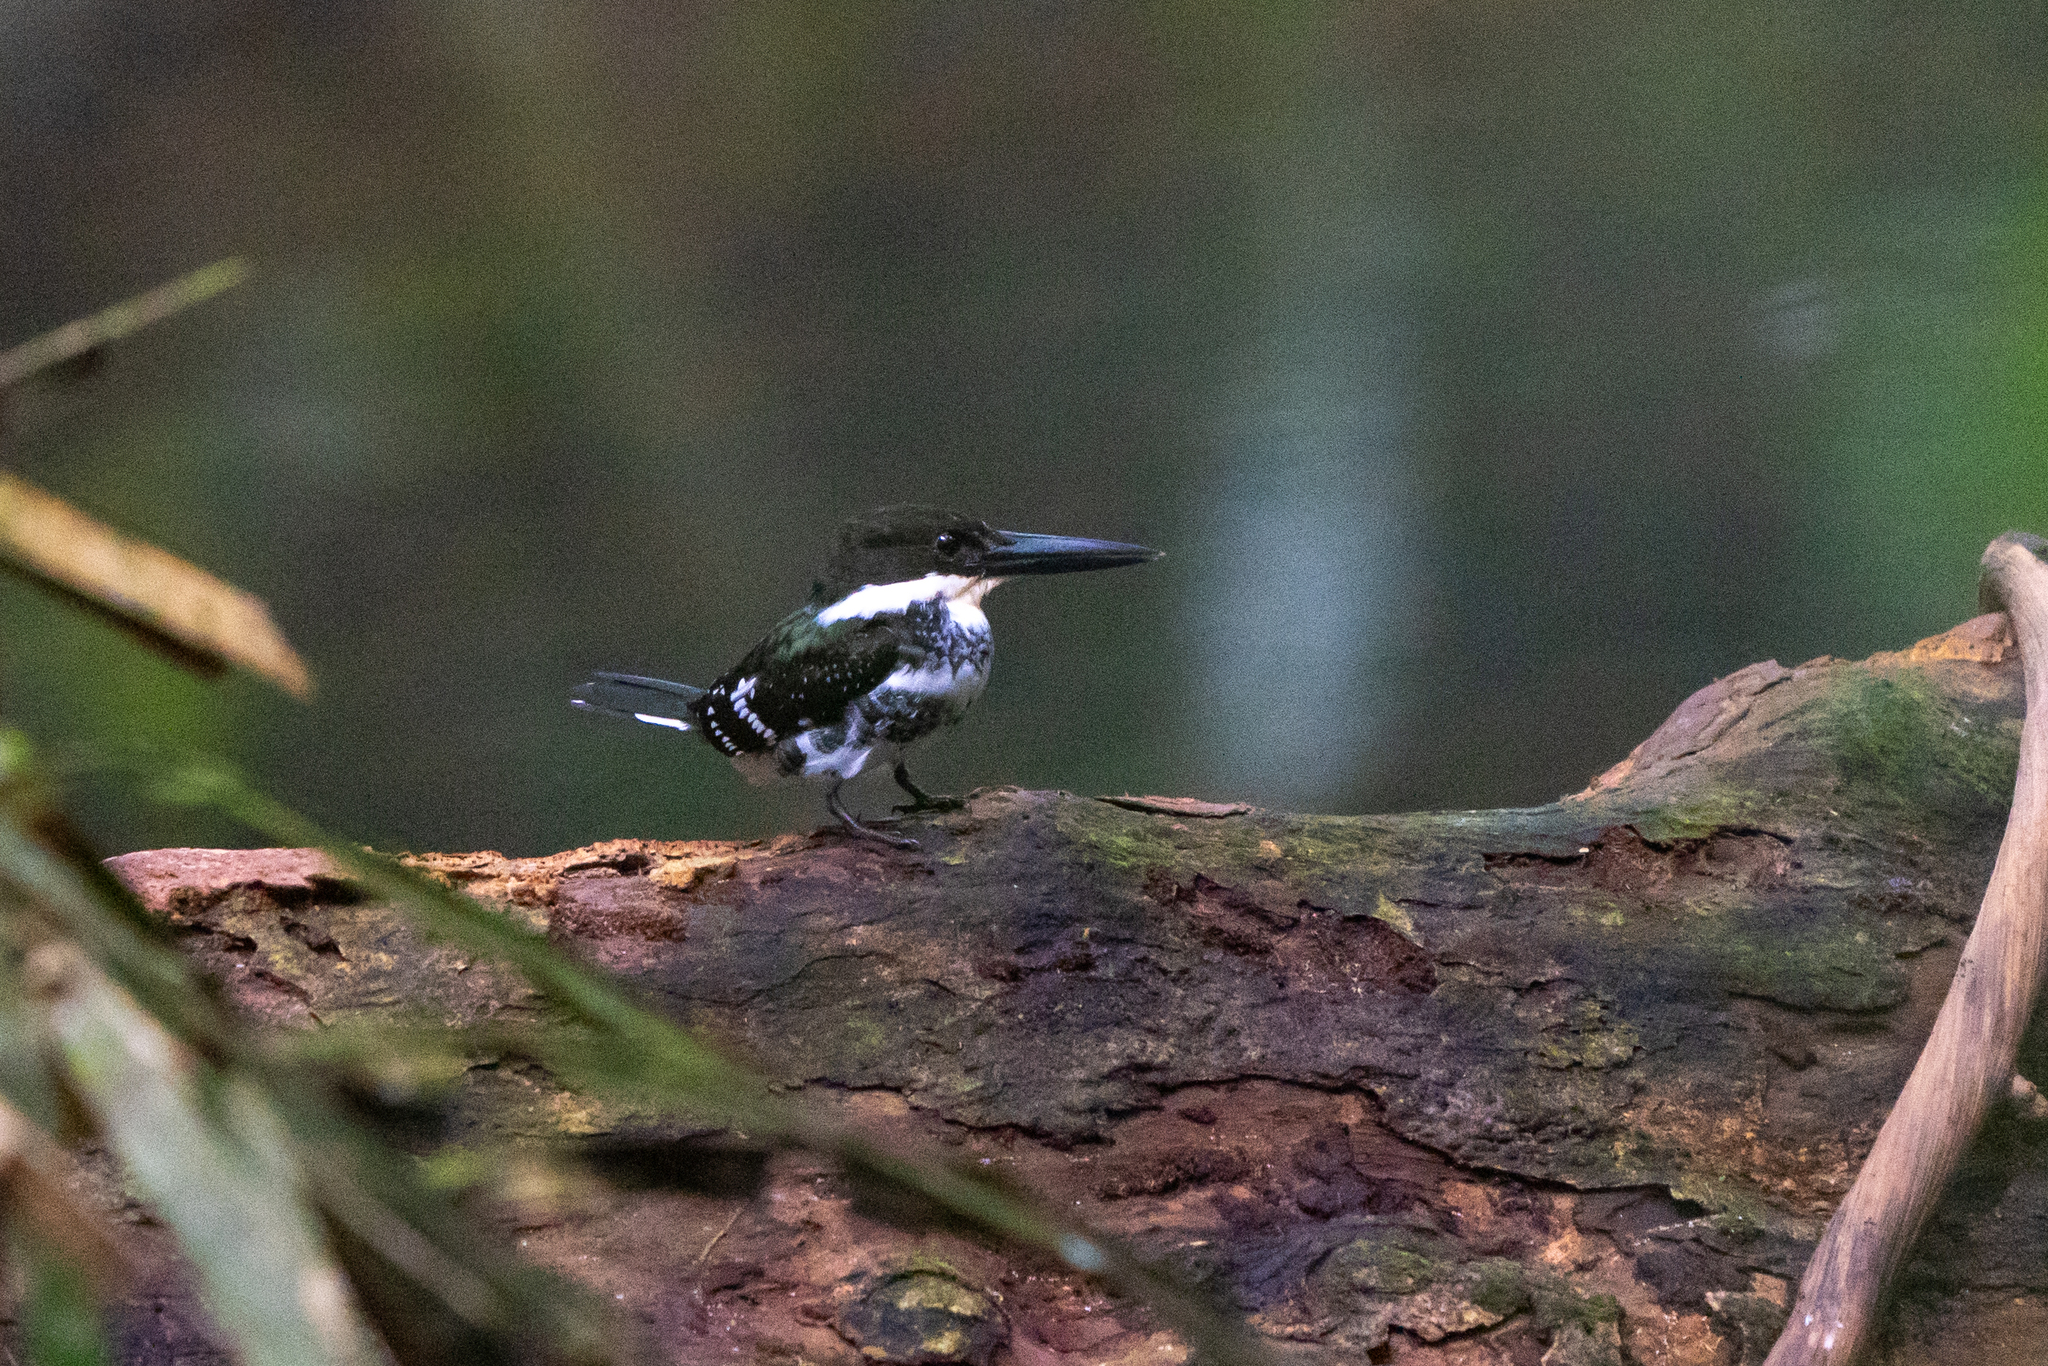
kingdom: Animalia
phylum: Chordata
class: Aves
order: Coraciiformes
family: Alcedinidae
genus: Chloroceryle
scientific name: Chloroceryle americana
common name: Green kingfisher
